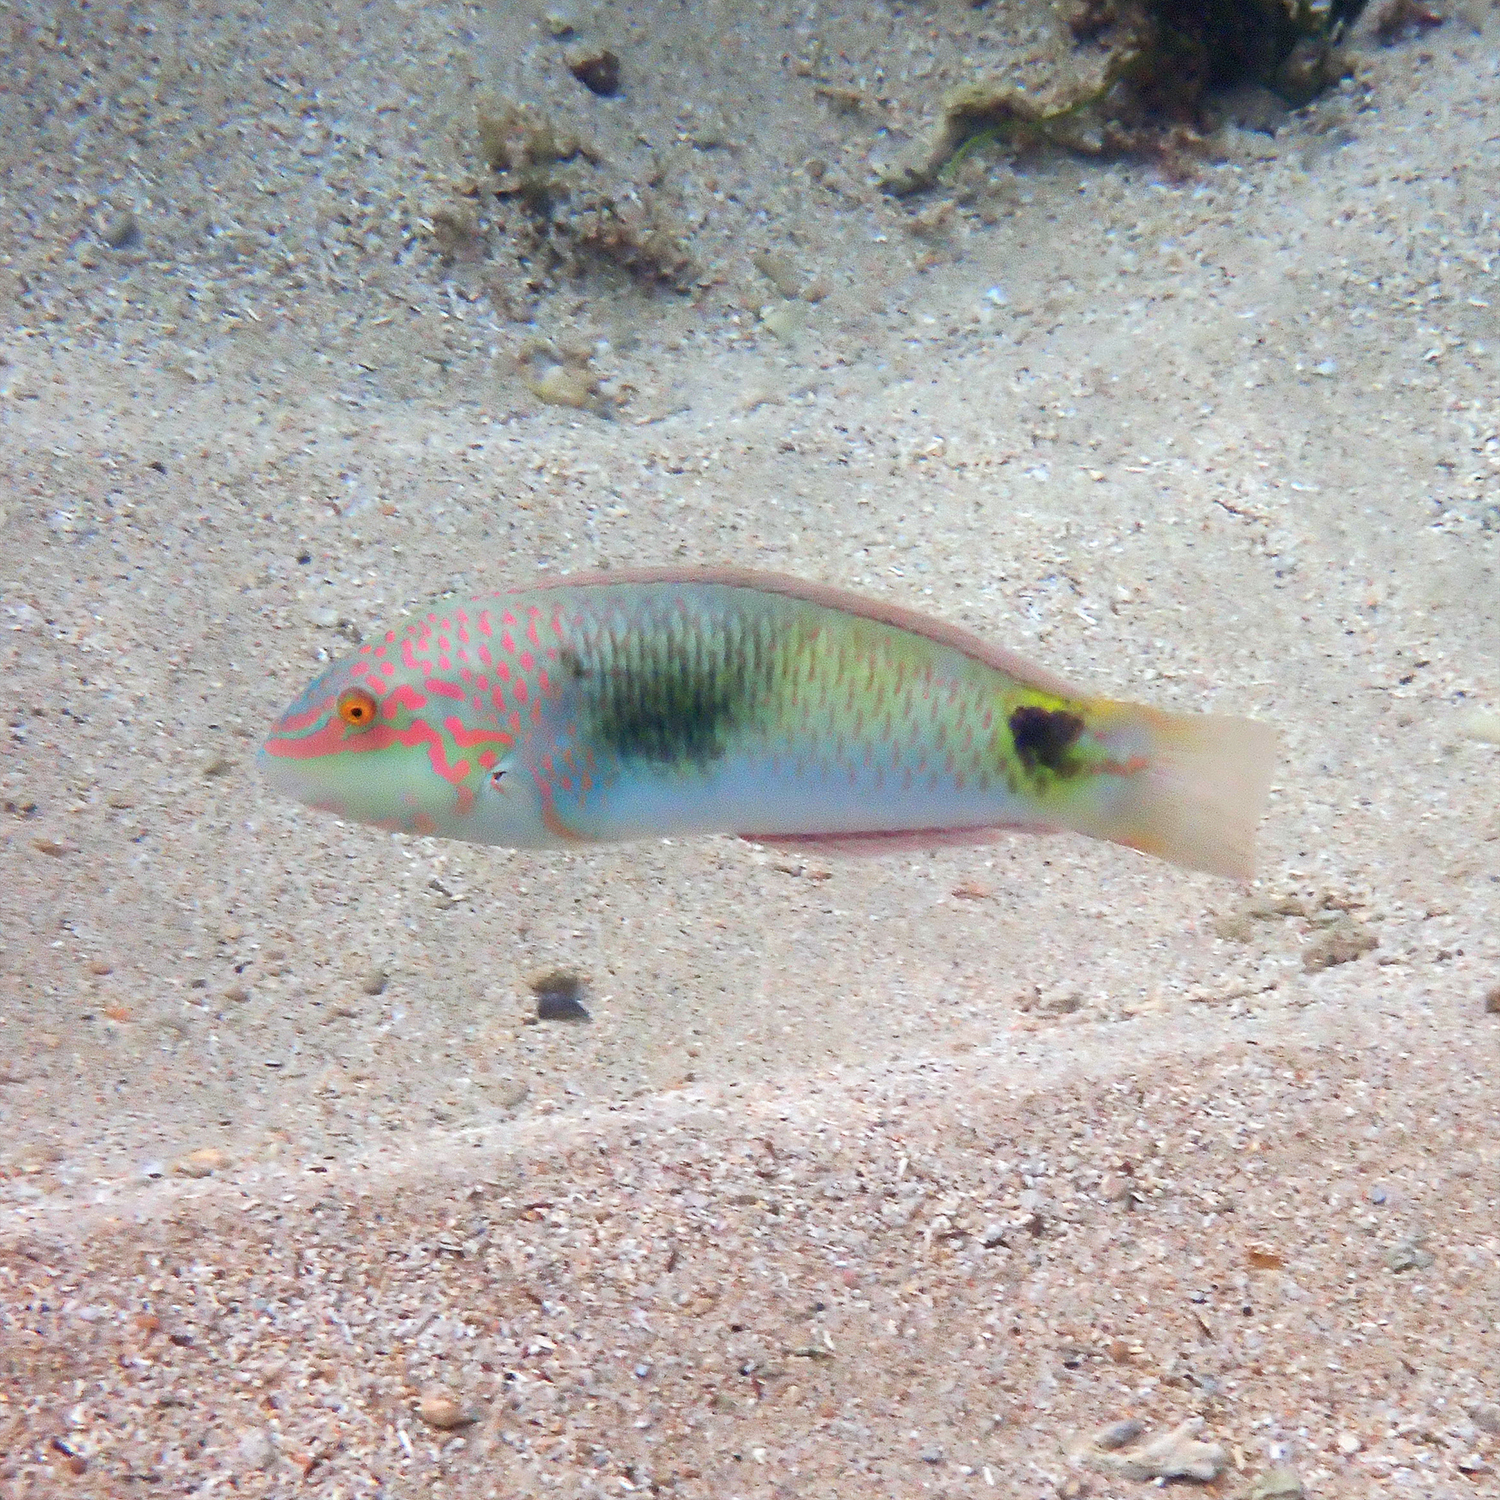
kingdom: Animalia
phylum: Chordata
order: Perciformes
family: Labridae
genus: Halichoeres
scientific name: Halichoeres trimaculatus
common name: Three-spot wrasse
